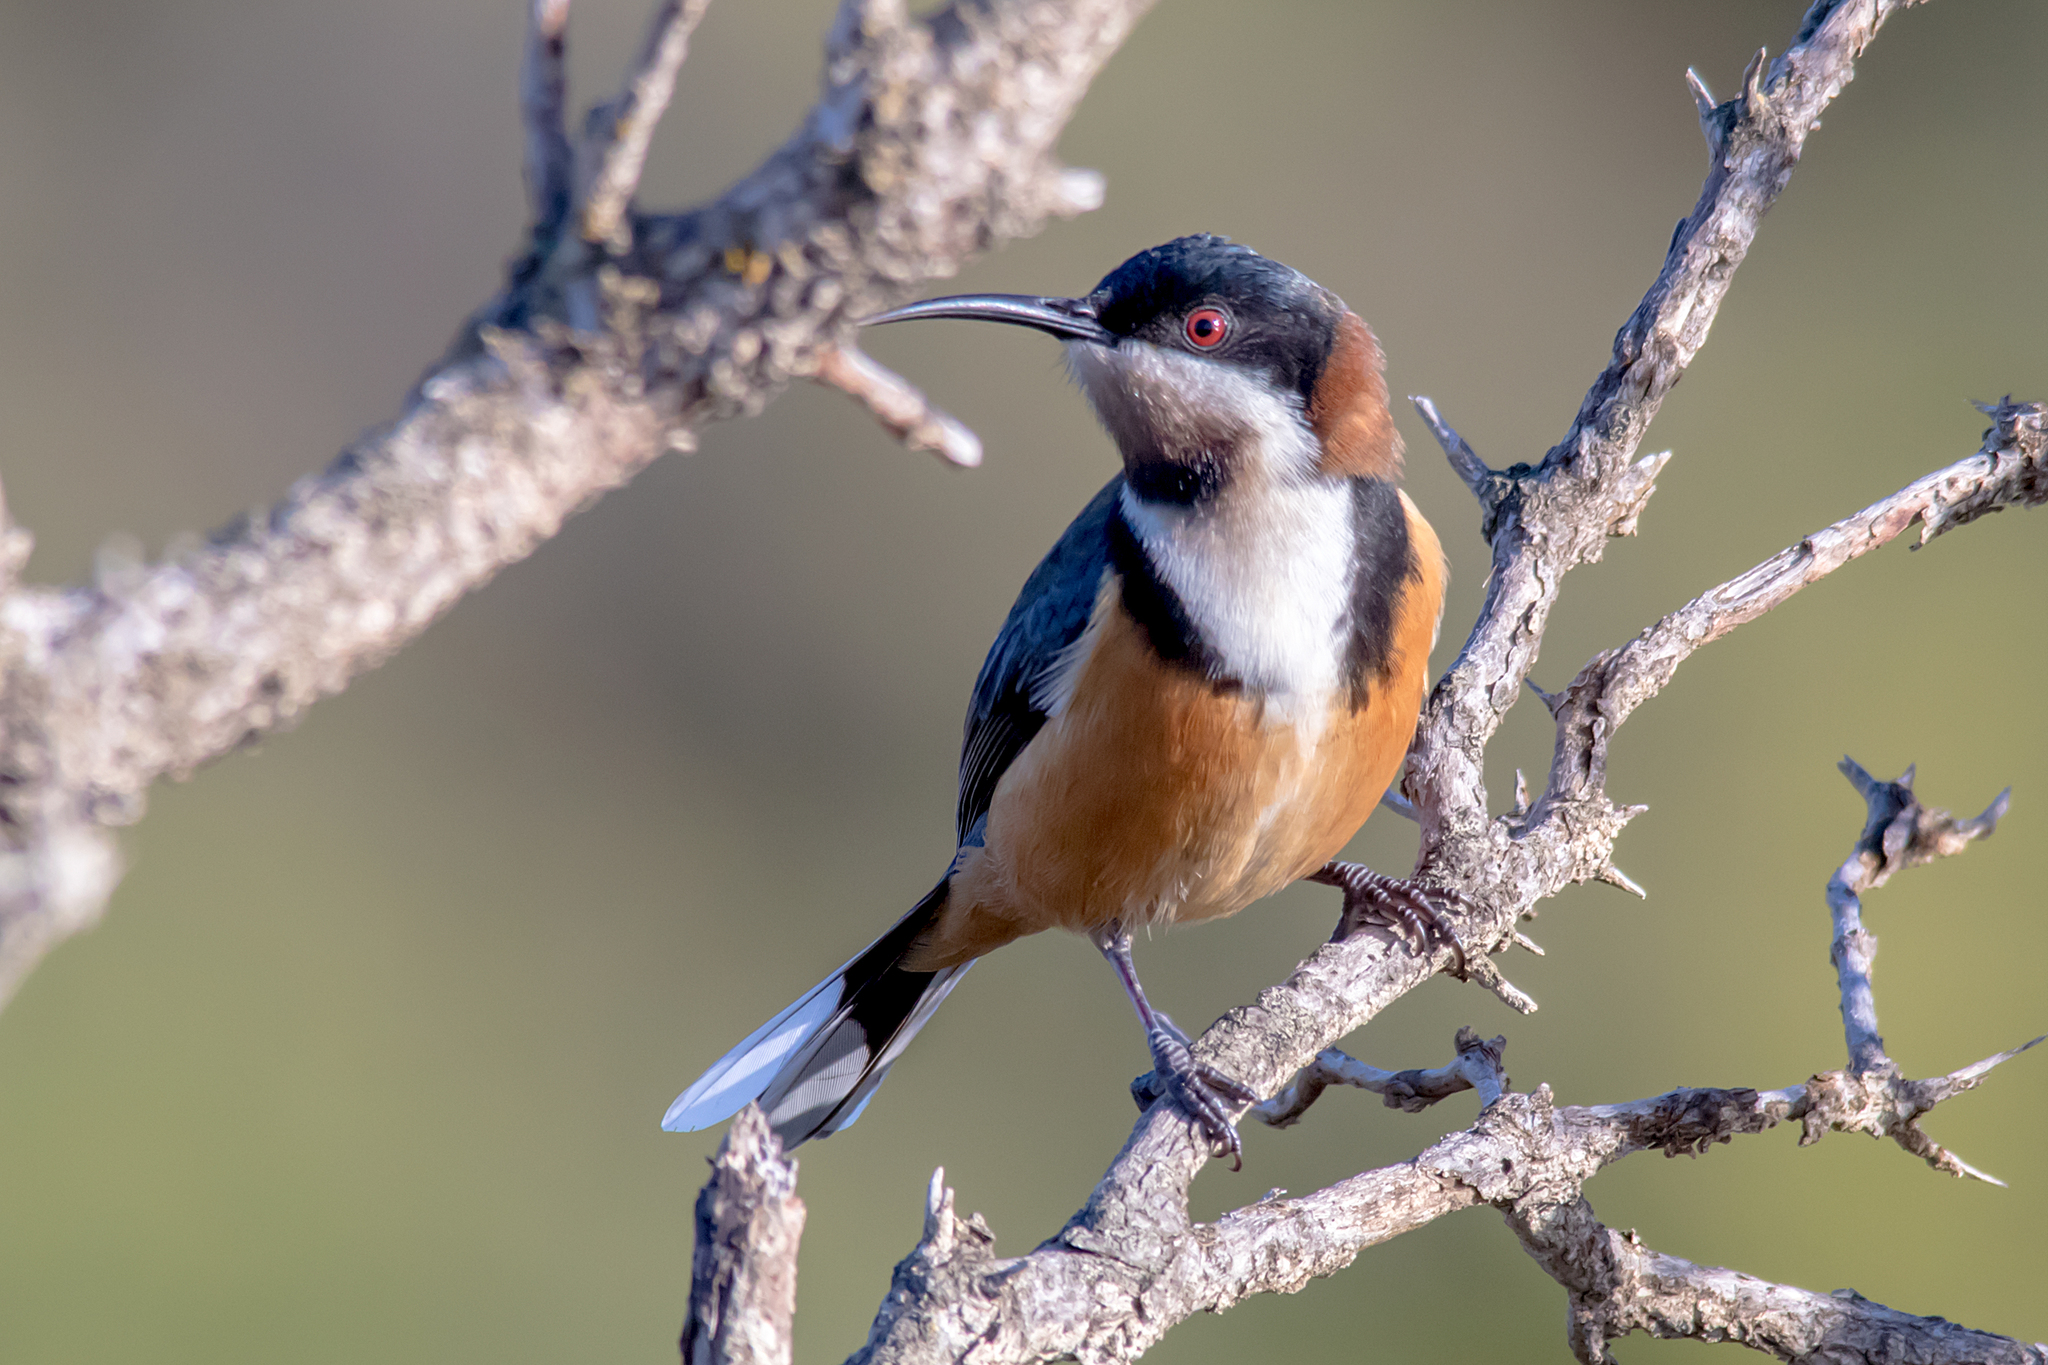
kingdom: Animalia
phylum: Chordata
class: Aves
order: Passeriformes
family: Meliphagidae
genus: Acanthorhynchus
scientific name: Acanthorhynchus tenuirostris
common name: Eastern spinebill
